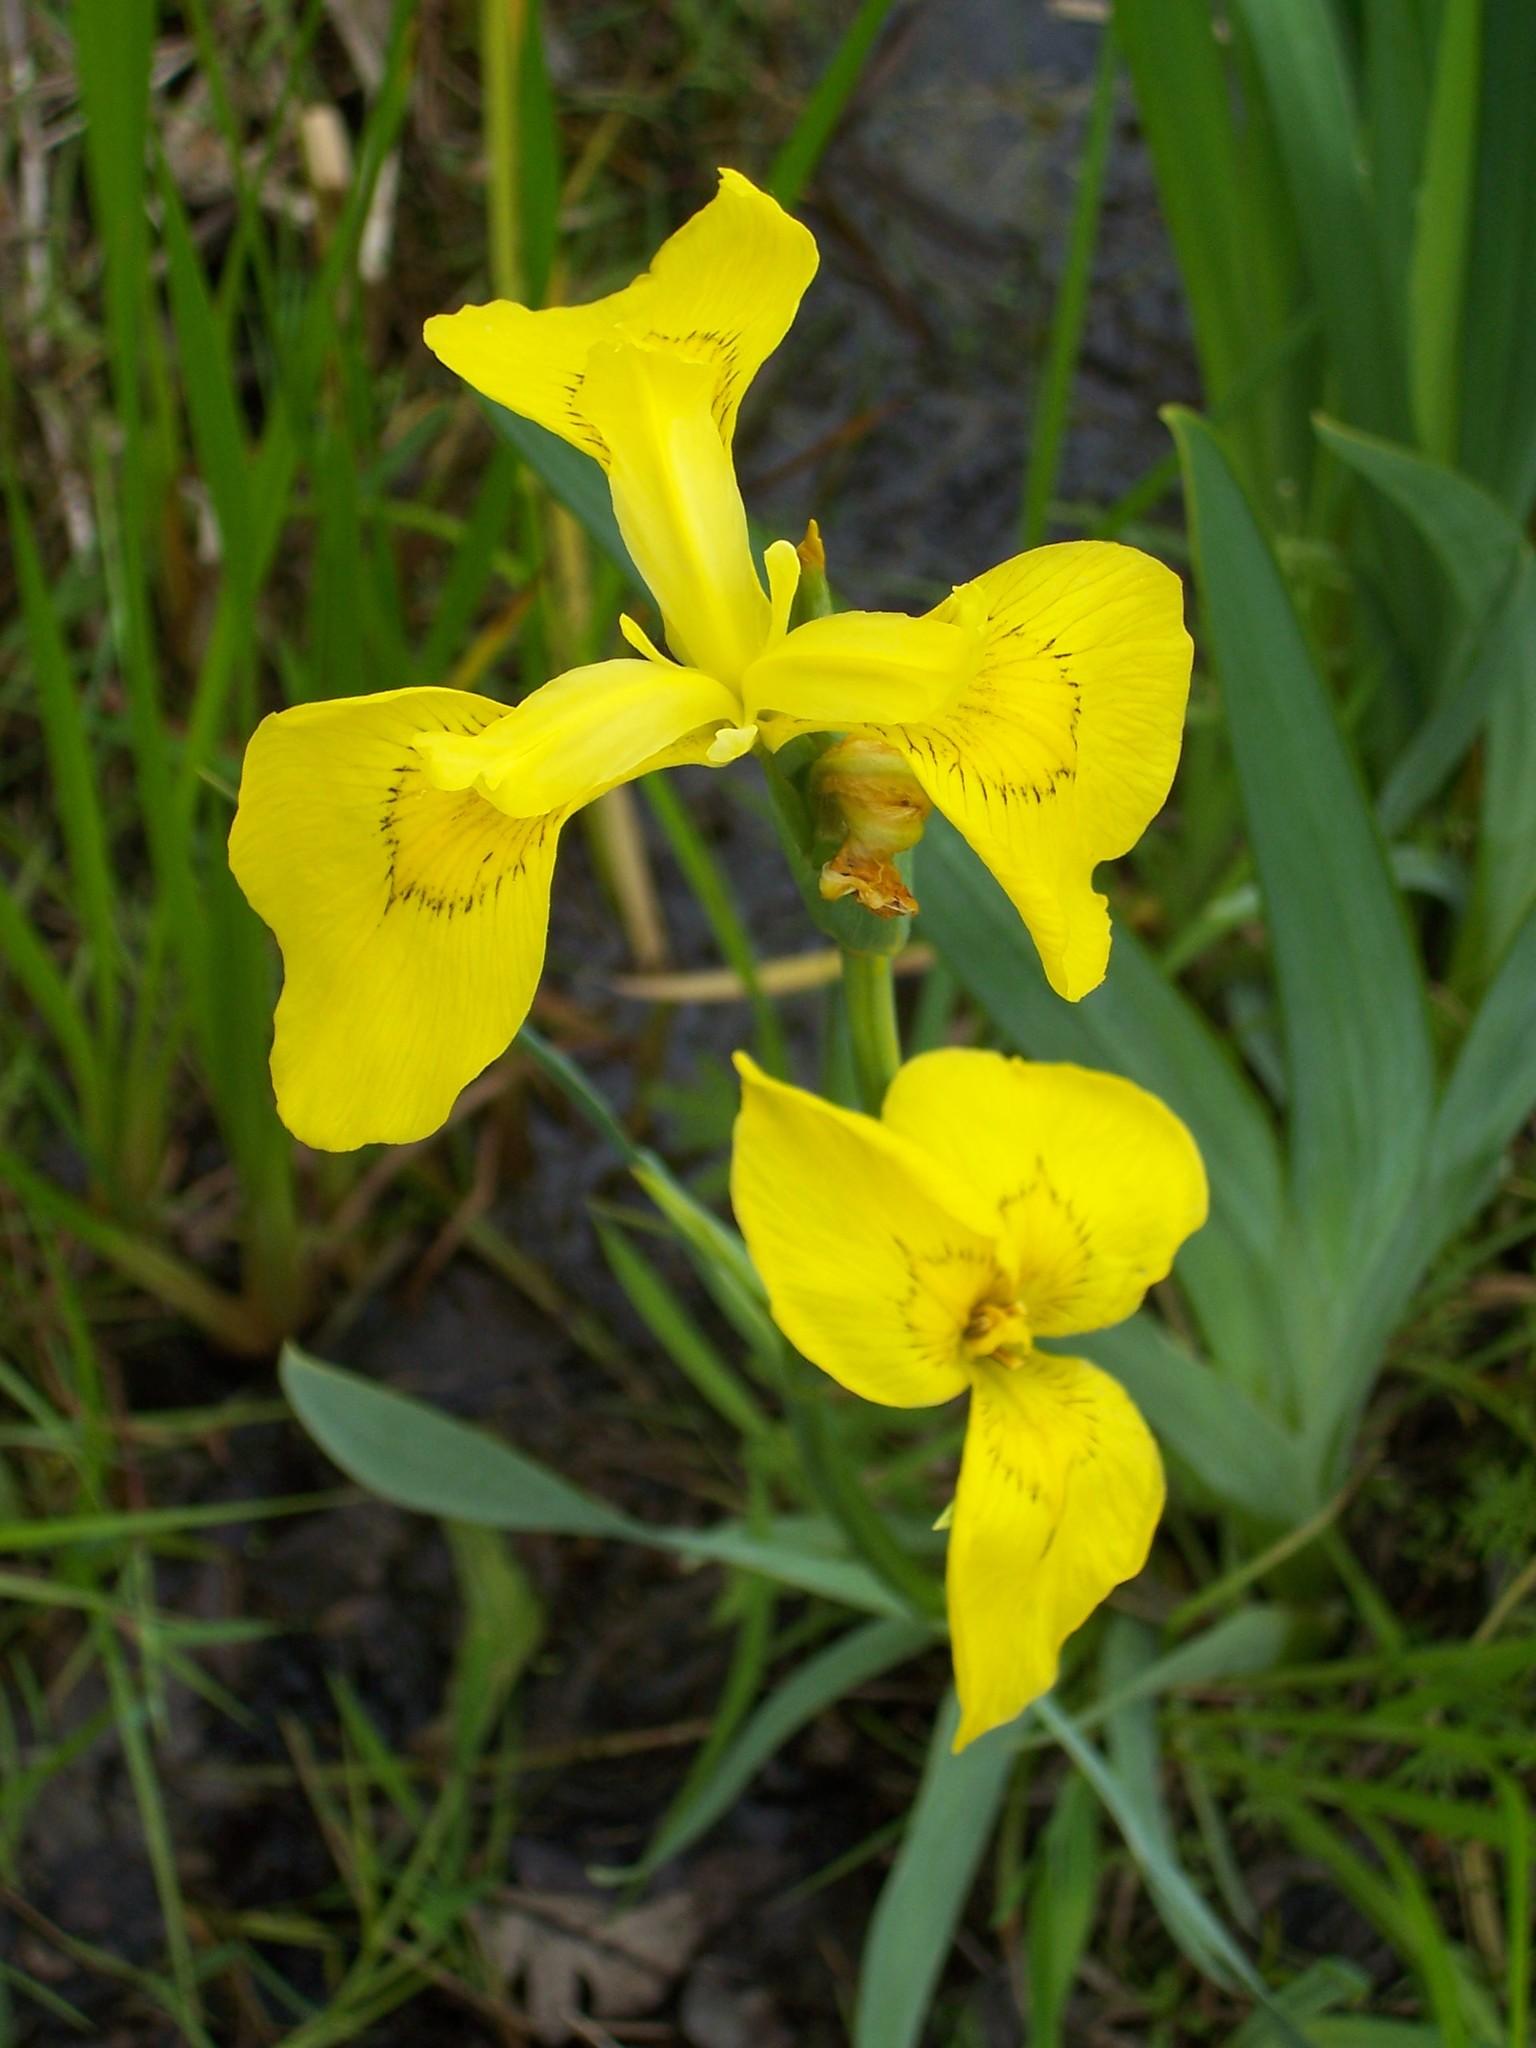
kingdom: Plantae
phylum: Tracheophyta
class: Liliopsida
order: Asparagales
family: Iridaceae
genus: Iris
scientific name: Iris pseudacorus
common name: Yellow flag
